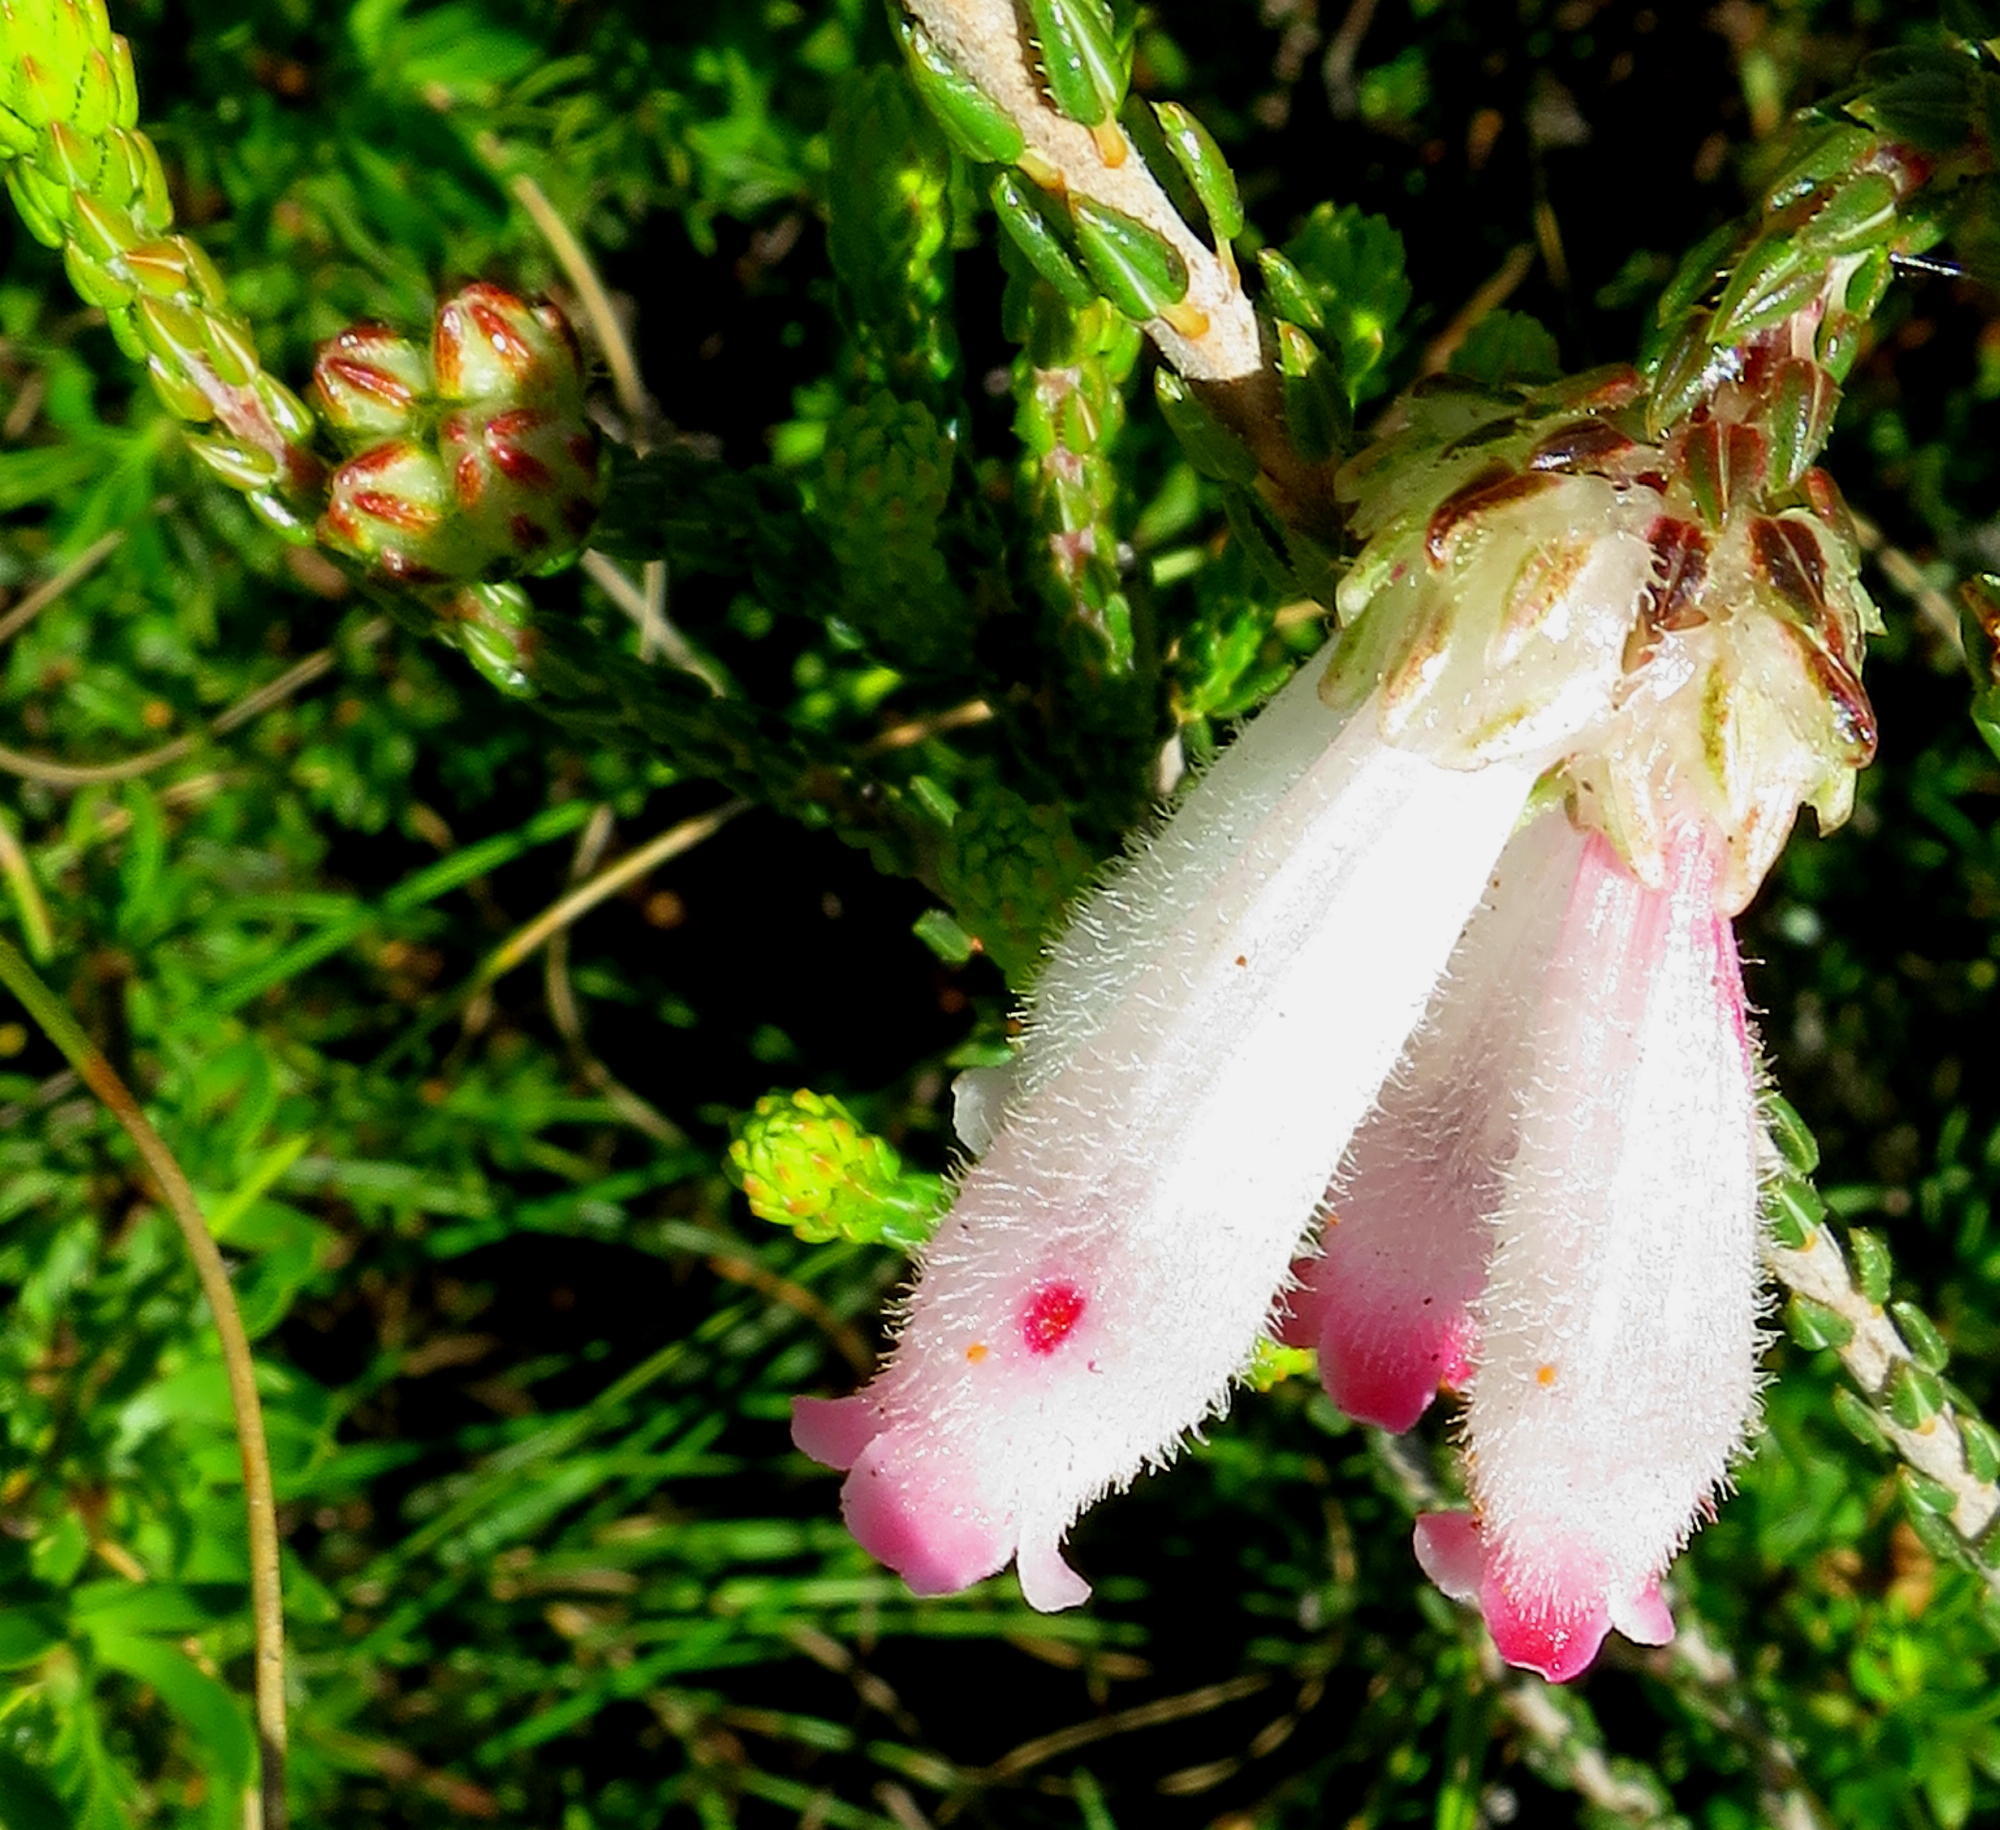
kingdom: Plantae
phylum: Tracheophyta
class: Magnoliopsida
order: Ericales
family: Ericaceae
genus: Erica
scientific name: Erica pectinifolia
